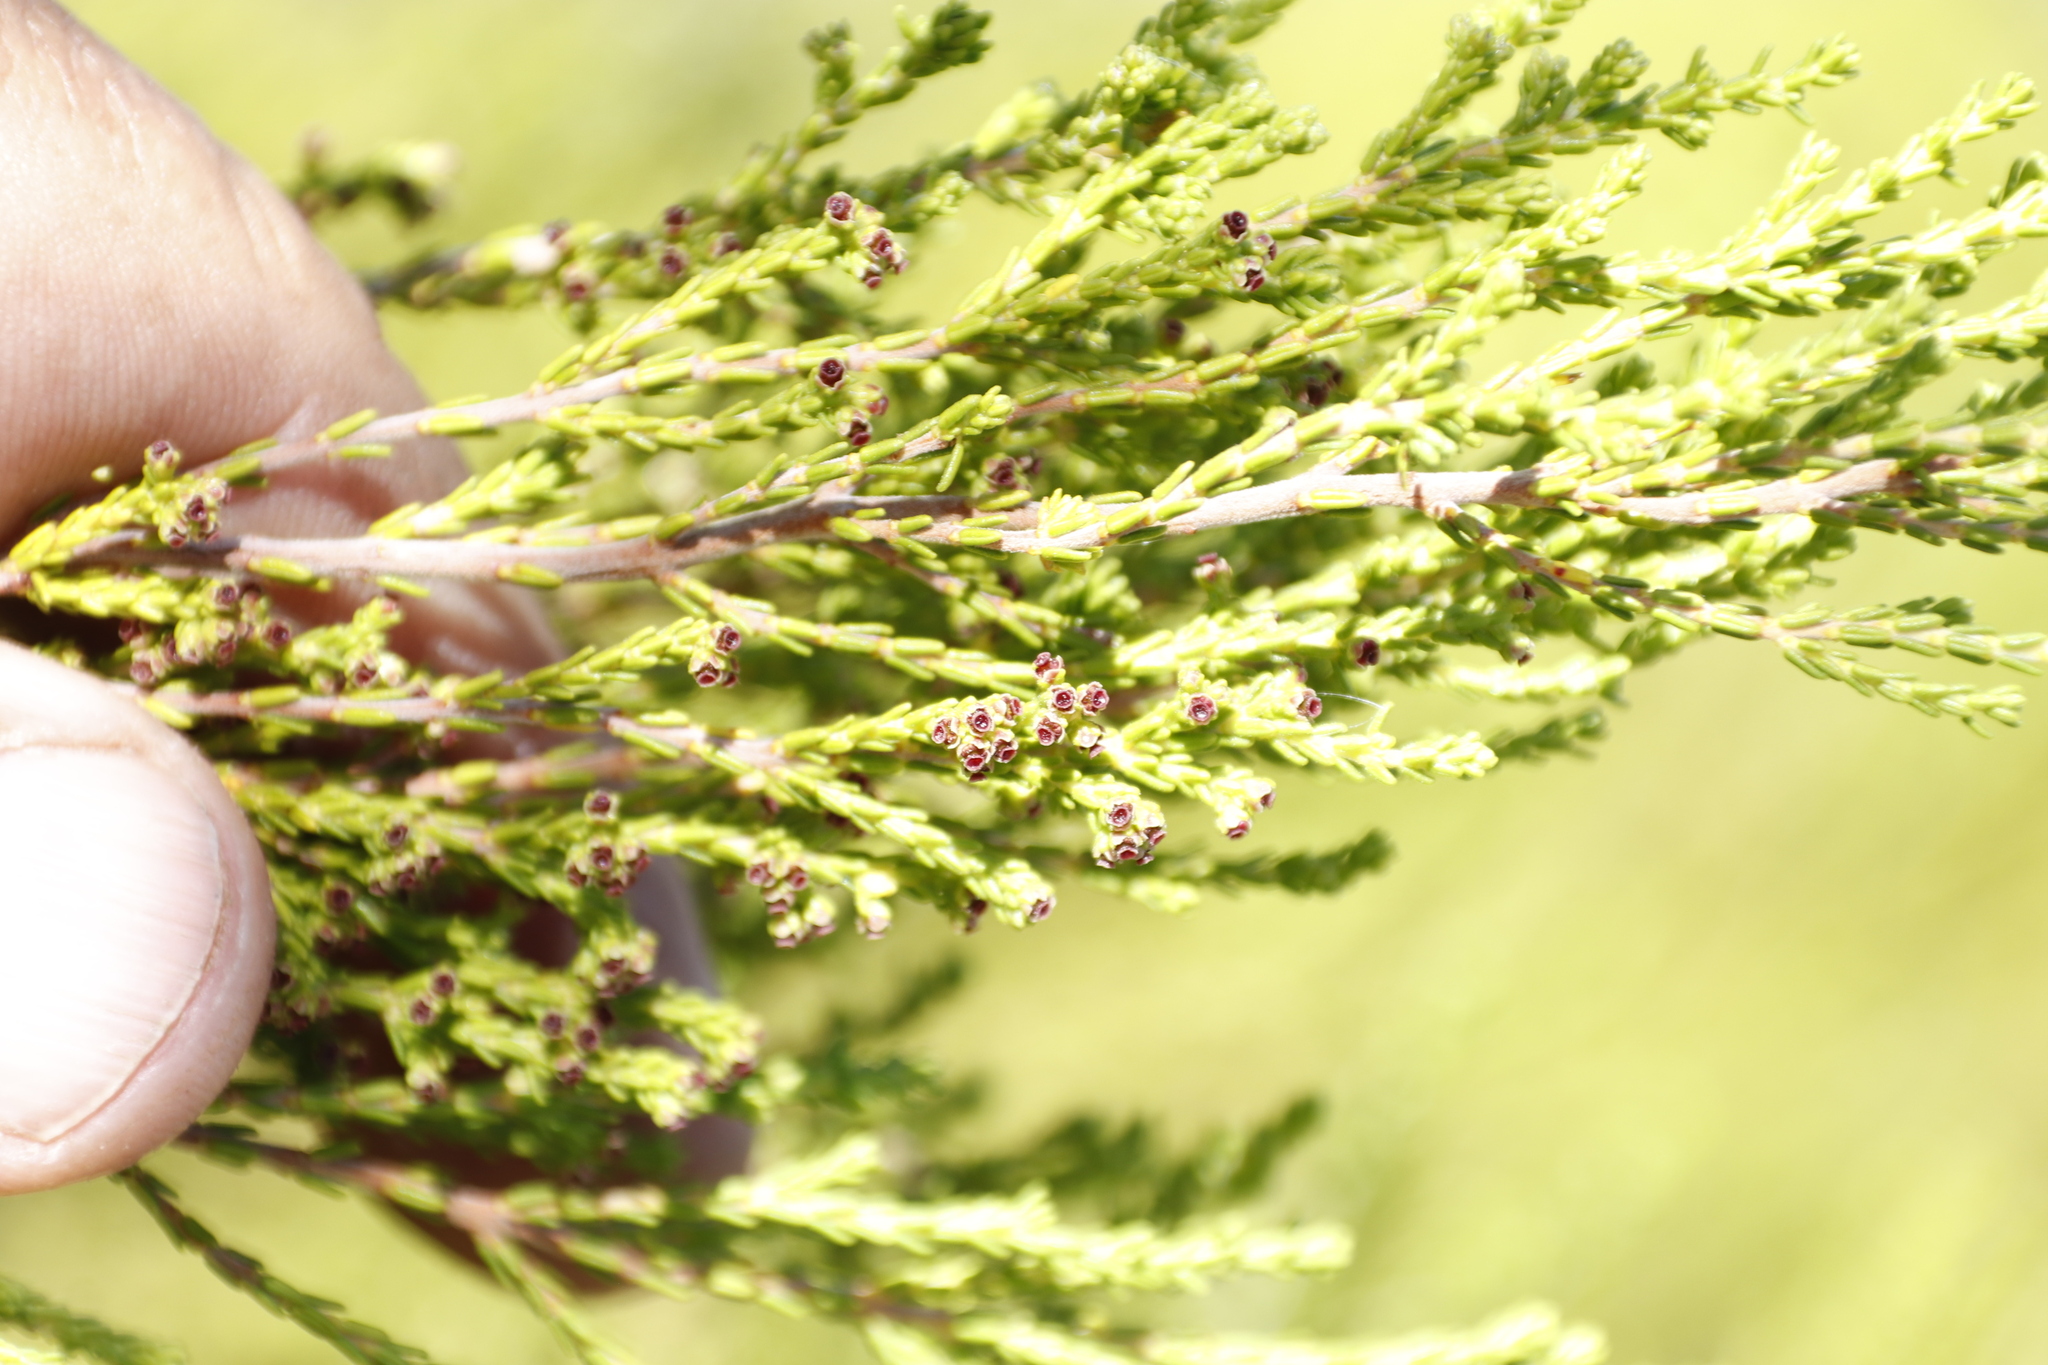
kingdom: Plantae
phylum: Tracheophyta
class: Magnoliopsida
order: Ericales
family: Ericaceae
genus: Erica
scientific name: Erica tristis
